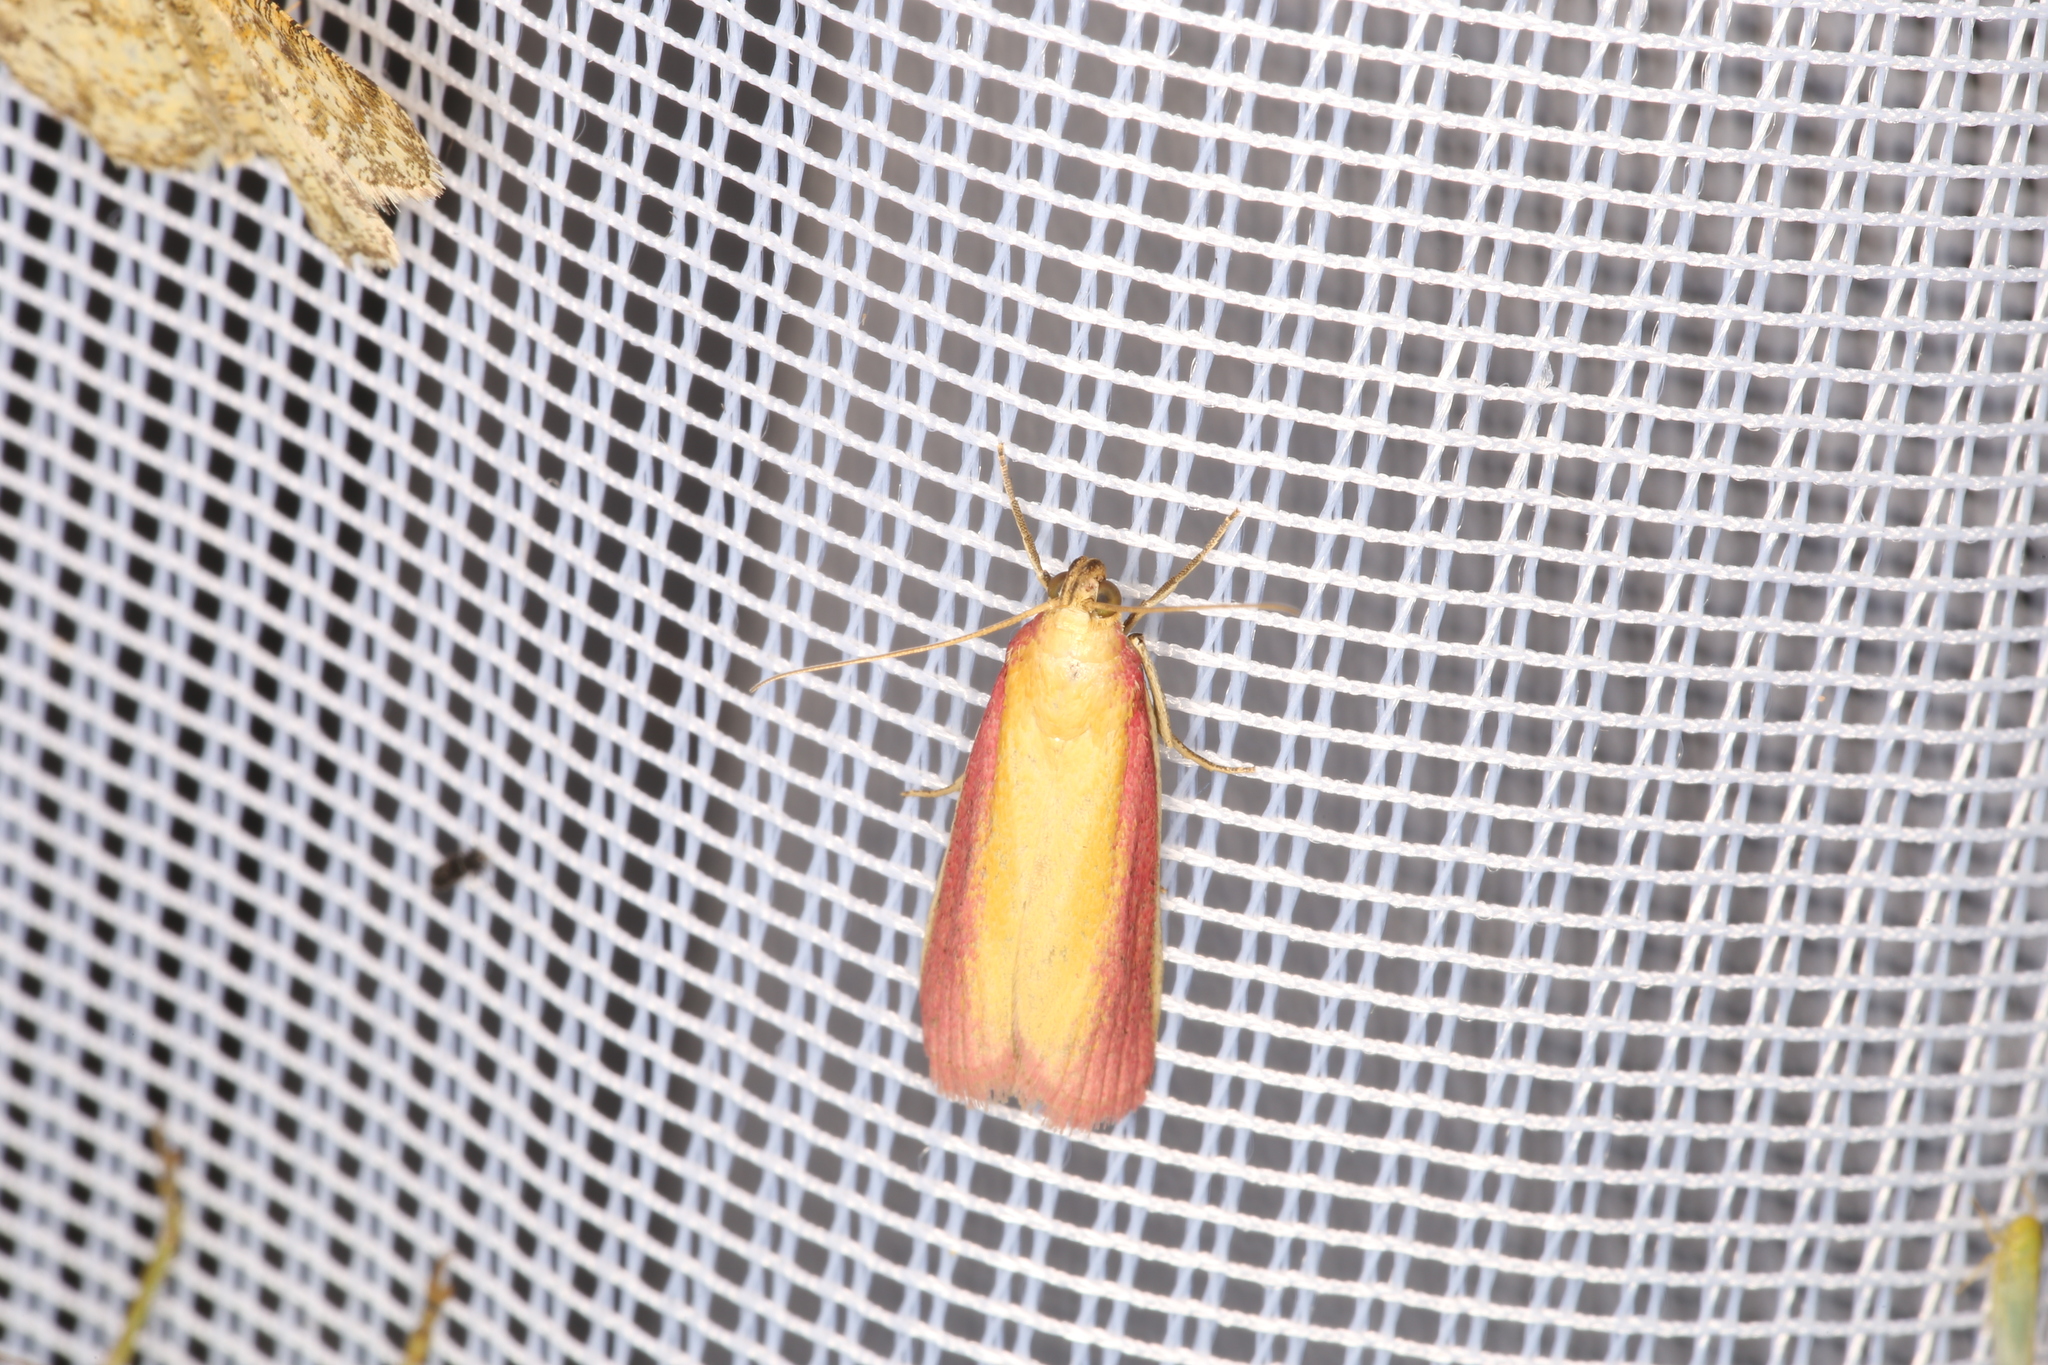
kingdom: Animalia
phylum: Arthropoda
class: Insecta
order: Lepidoptera
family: Pyralidae
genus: Oncocera
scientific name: Oncocera semirubella
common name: Rosy-striped knot-horn
